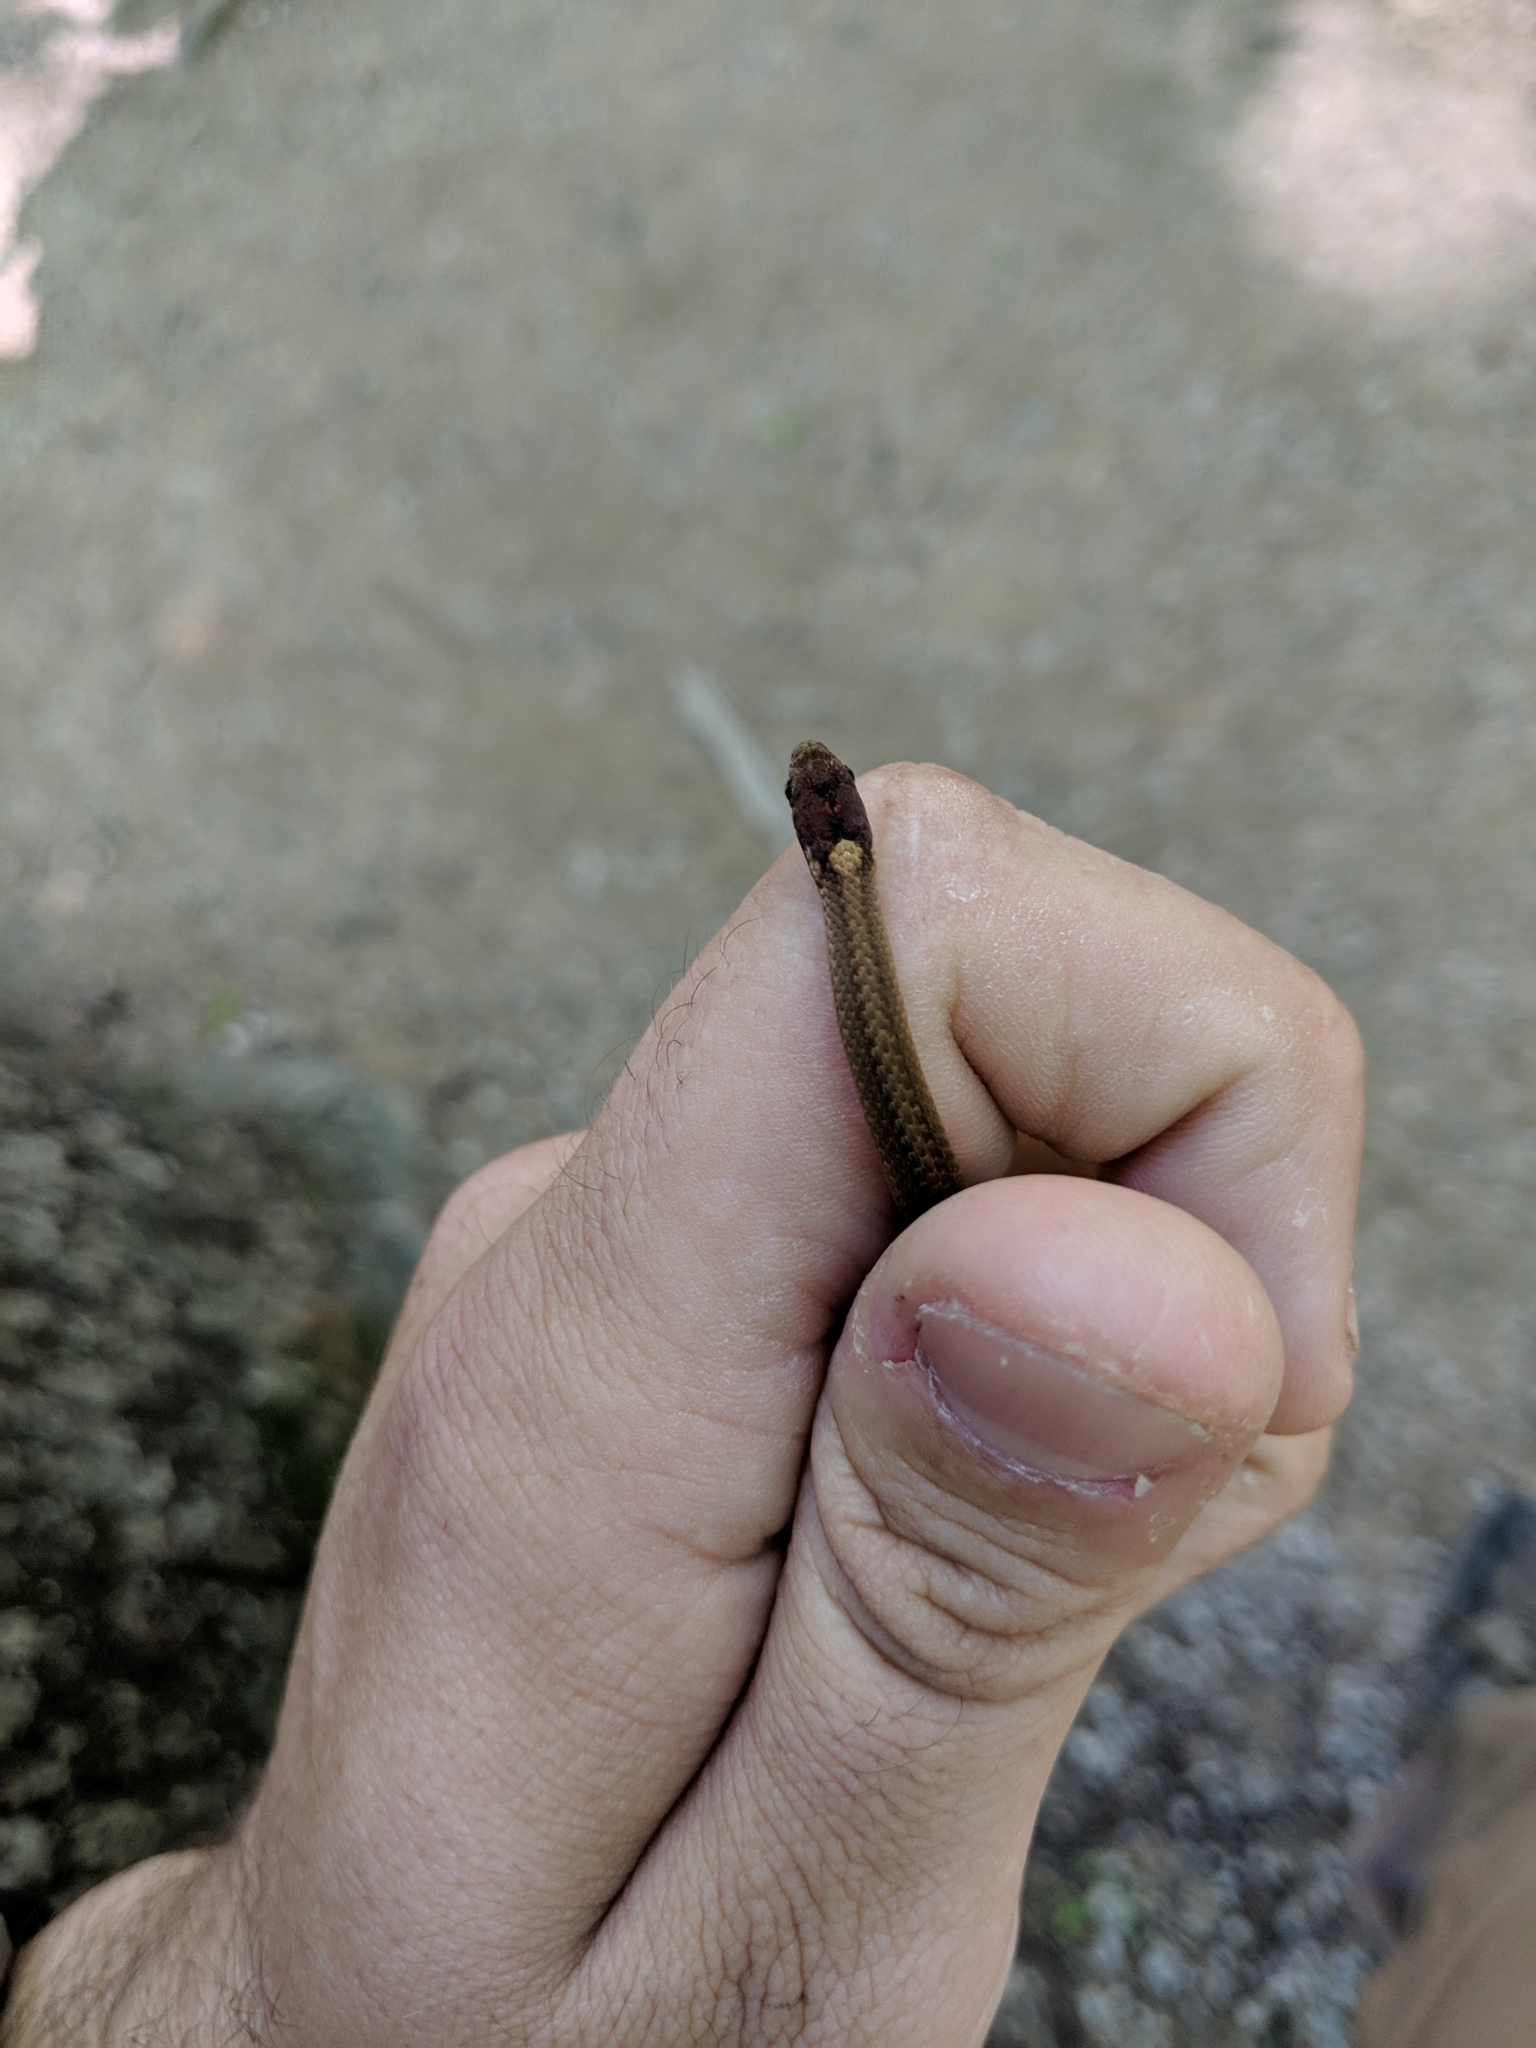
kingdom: Animalia
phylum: Chordata
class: Squamata
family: Colubridae
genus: Storeria
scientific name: Storeria occipitomaculata
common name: Redbelly snake
